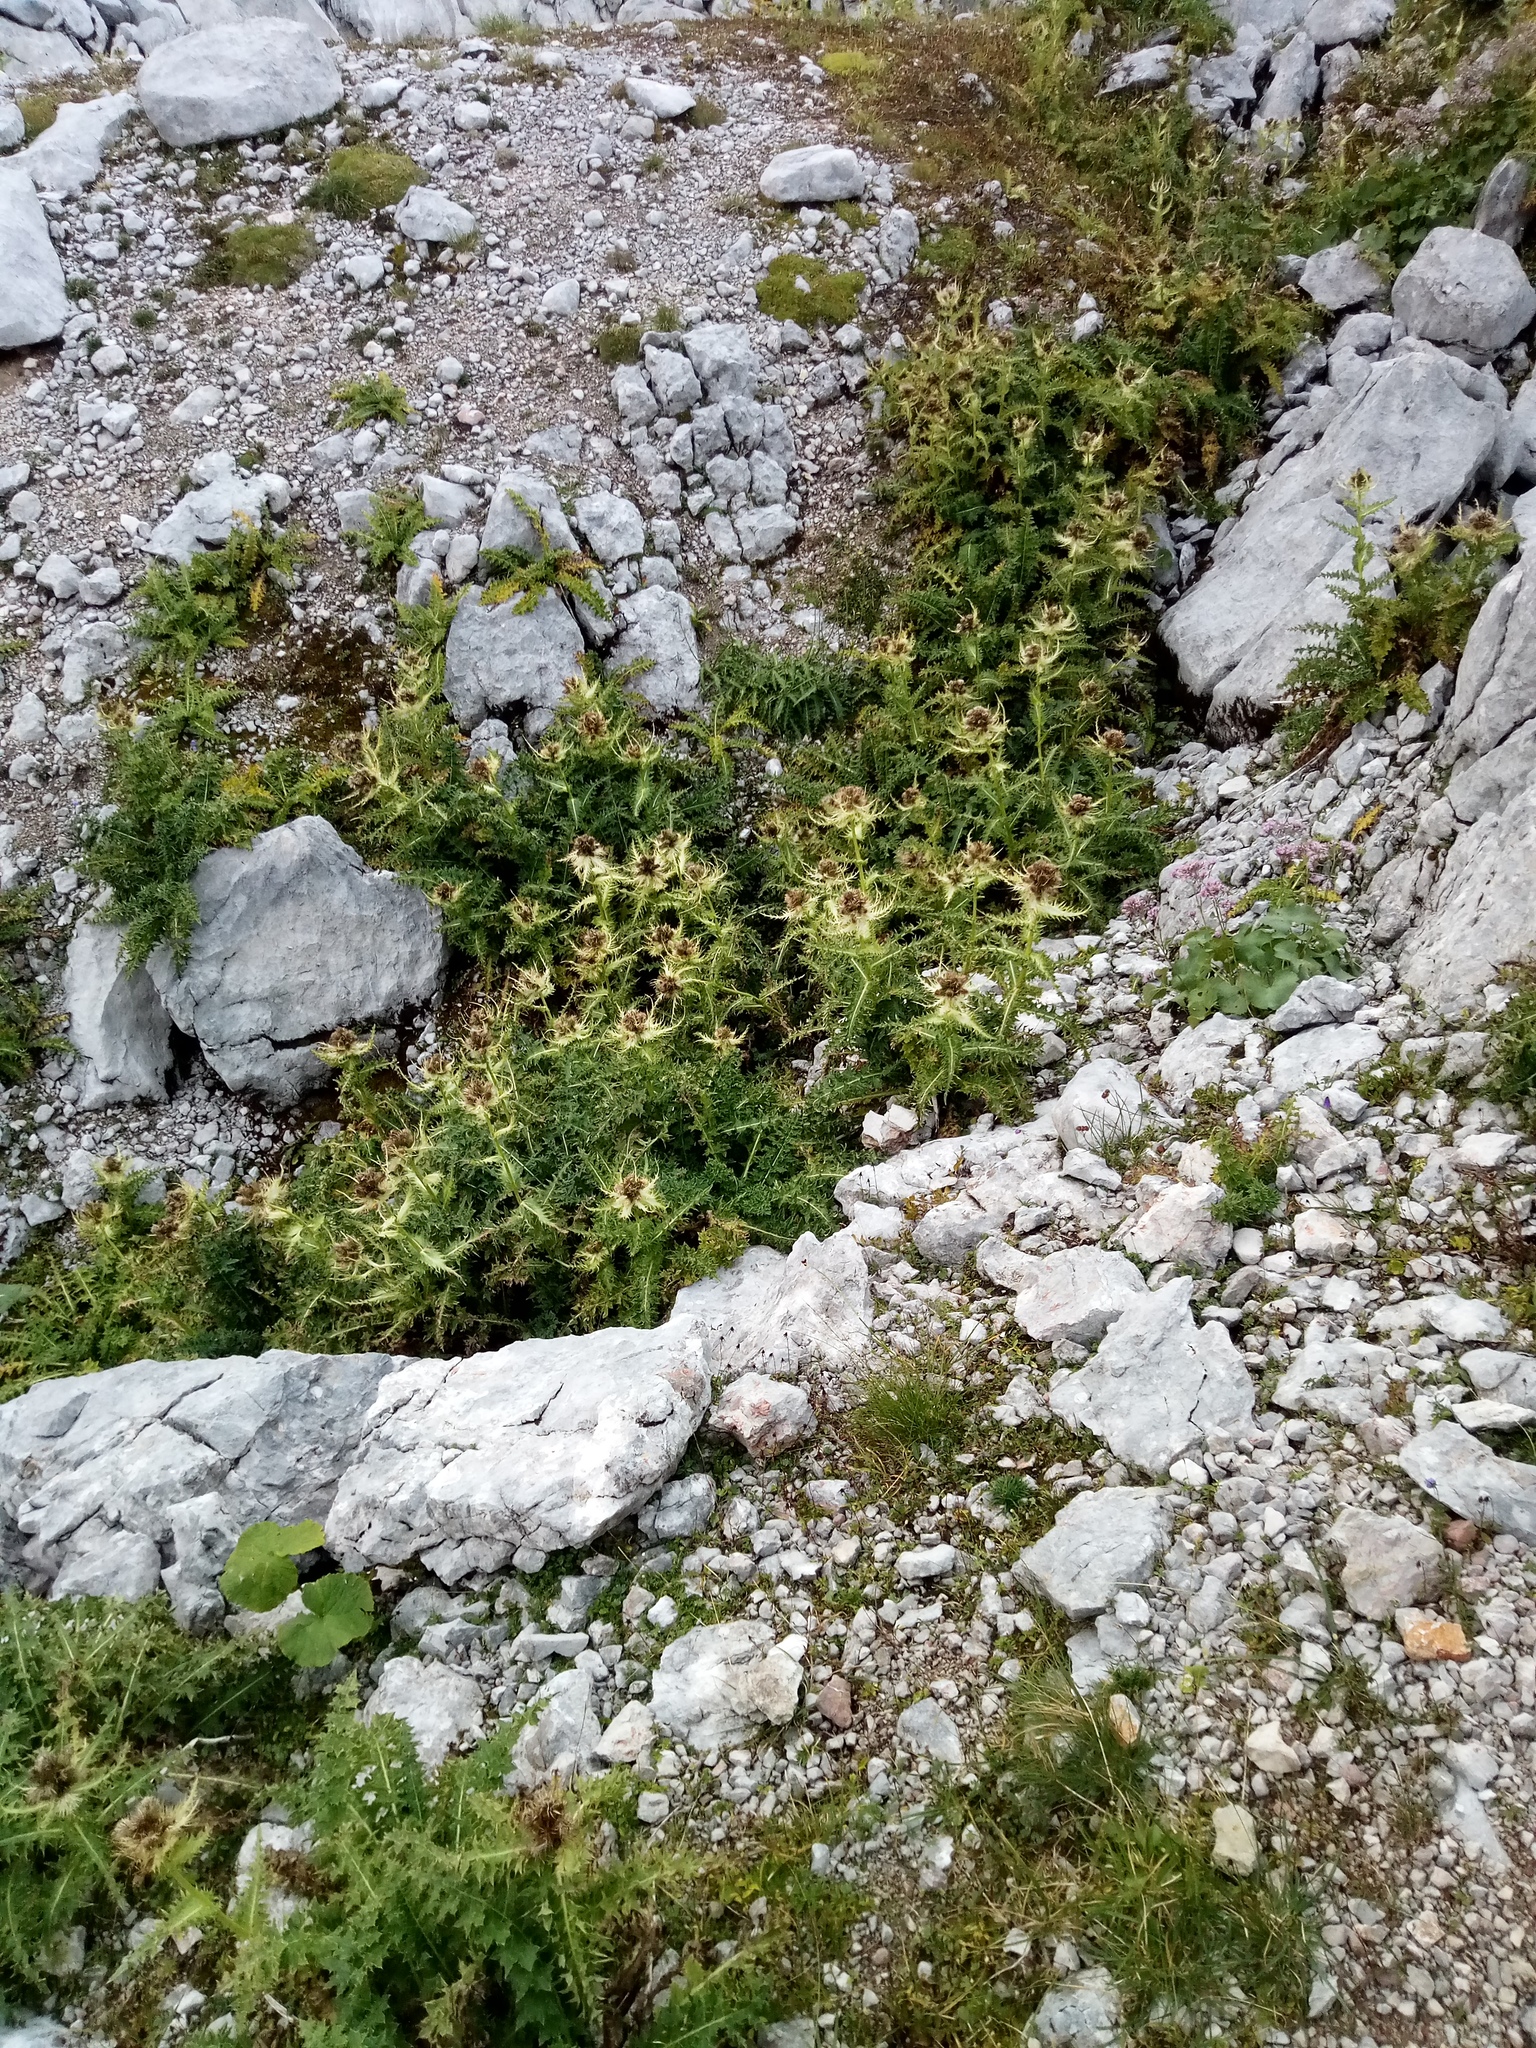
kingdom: Plantae
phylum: Tracheophyta
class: Magnoliopsida
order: Asterales
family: Asteraceae
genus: Cirsium
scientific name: Cirsium spinosissimum
